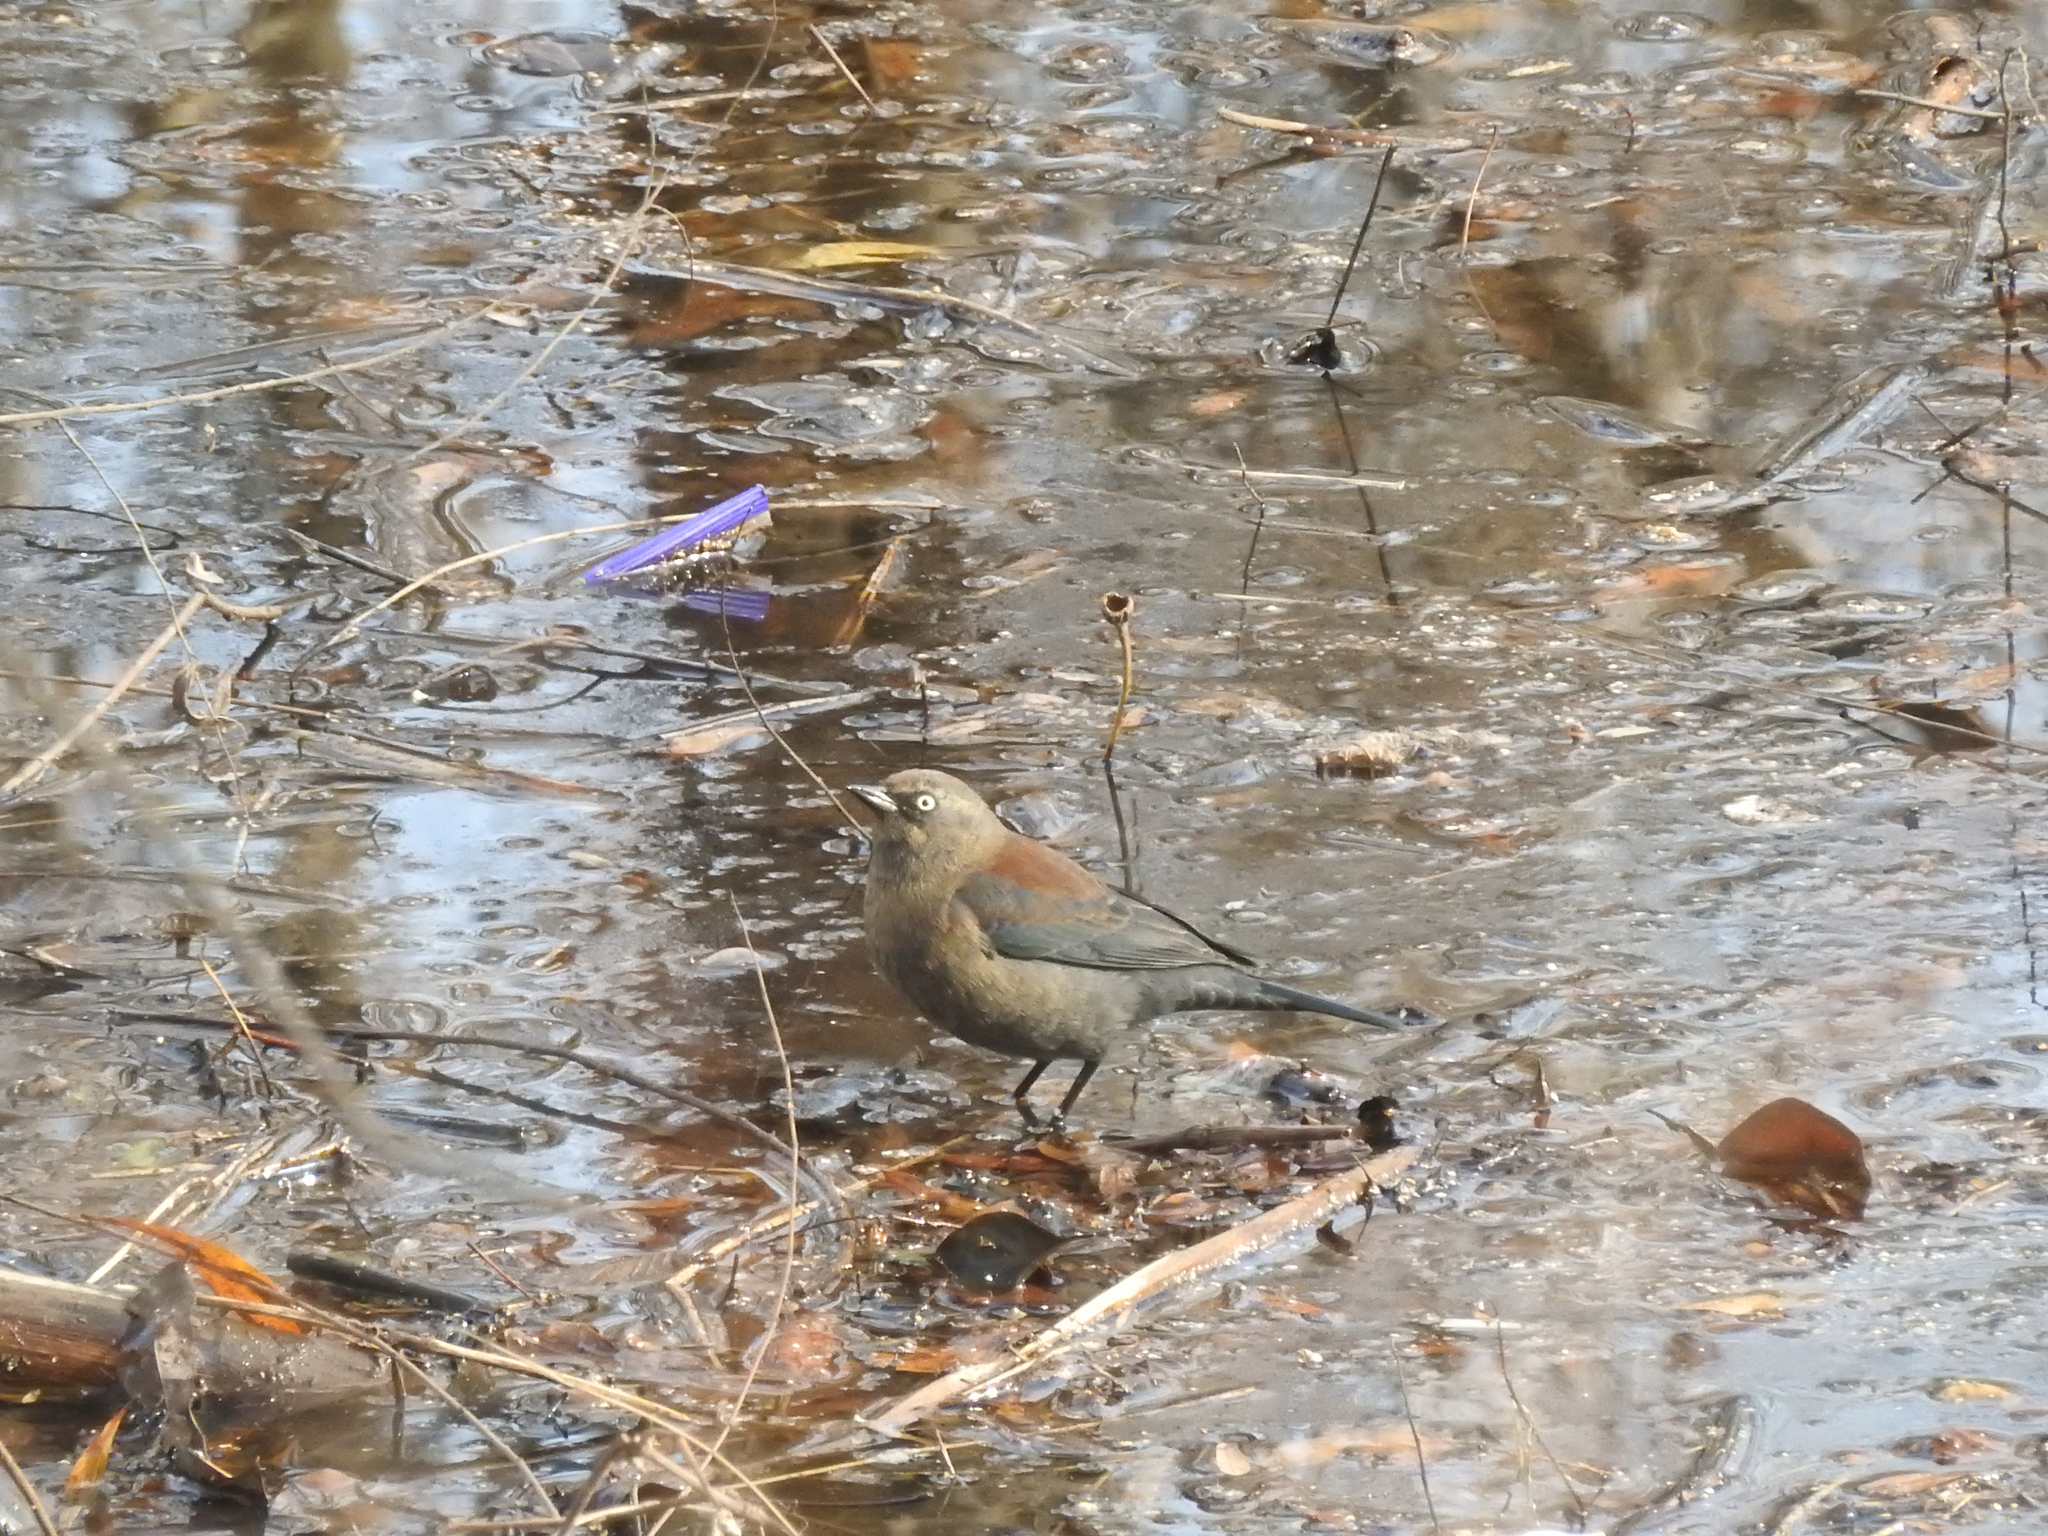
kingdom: Animalia
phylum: Chordata
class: Aves
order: Passeriformes
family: Icteridae
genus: Euphagus
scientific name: Euphagus carolinus
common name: Rusty blackbird
